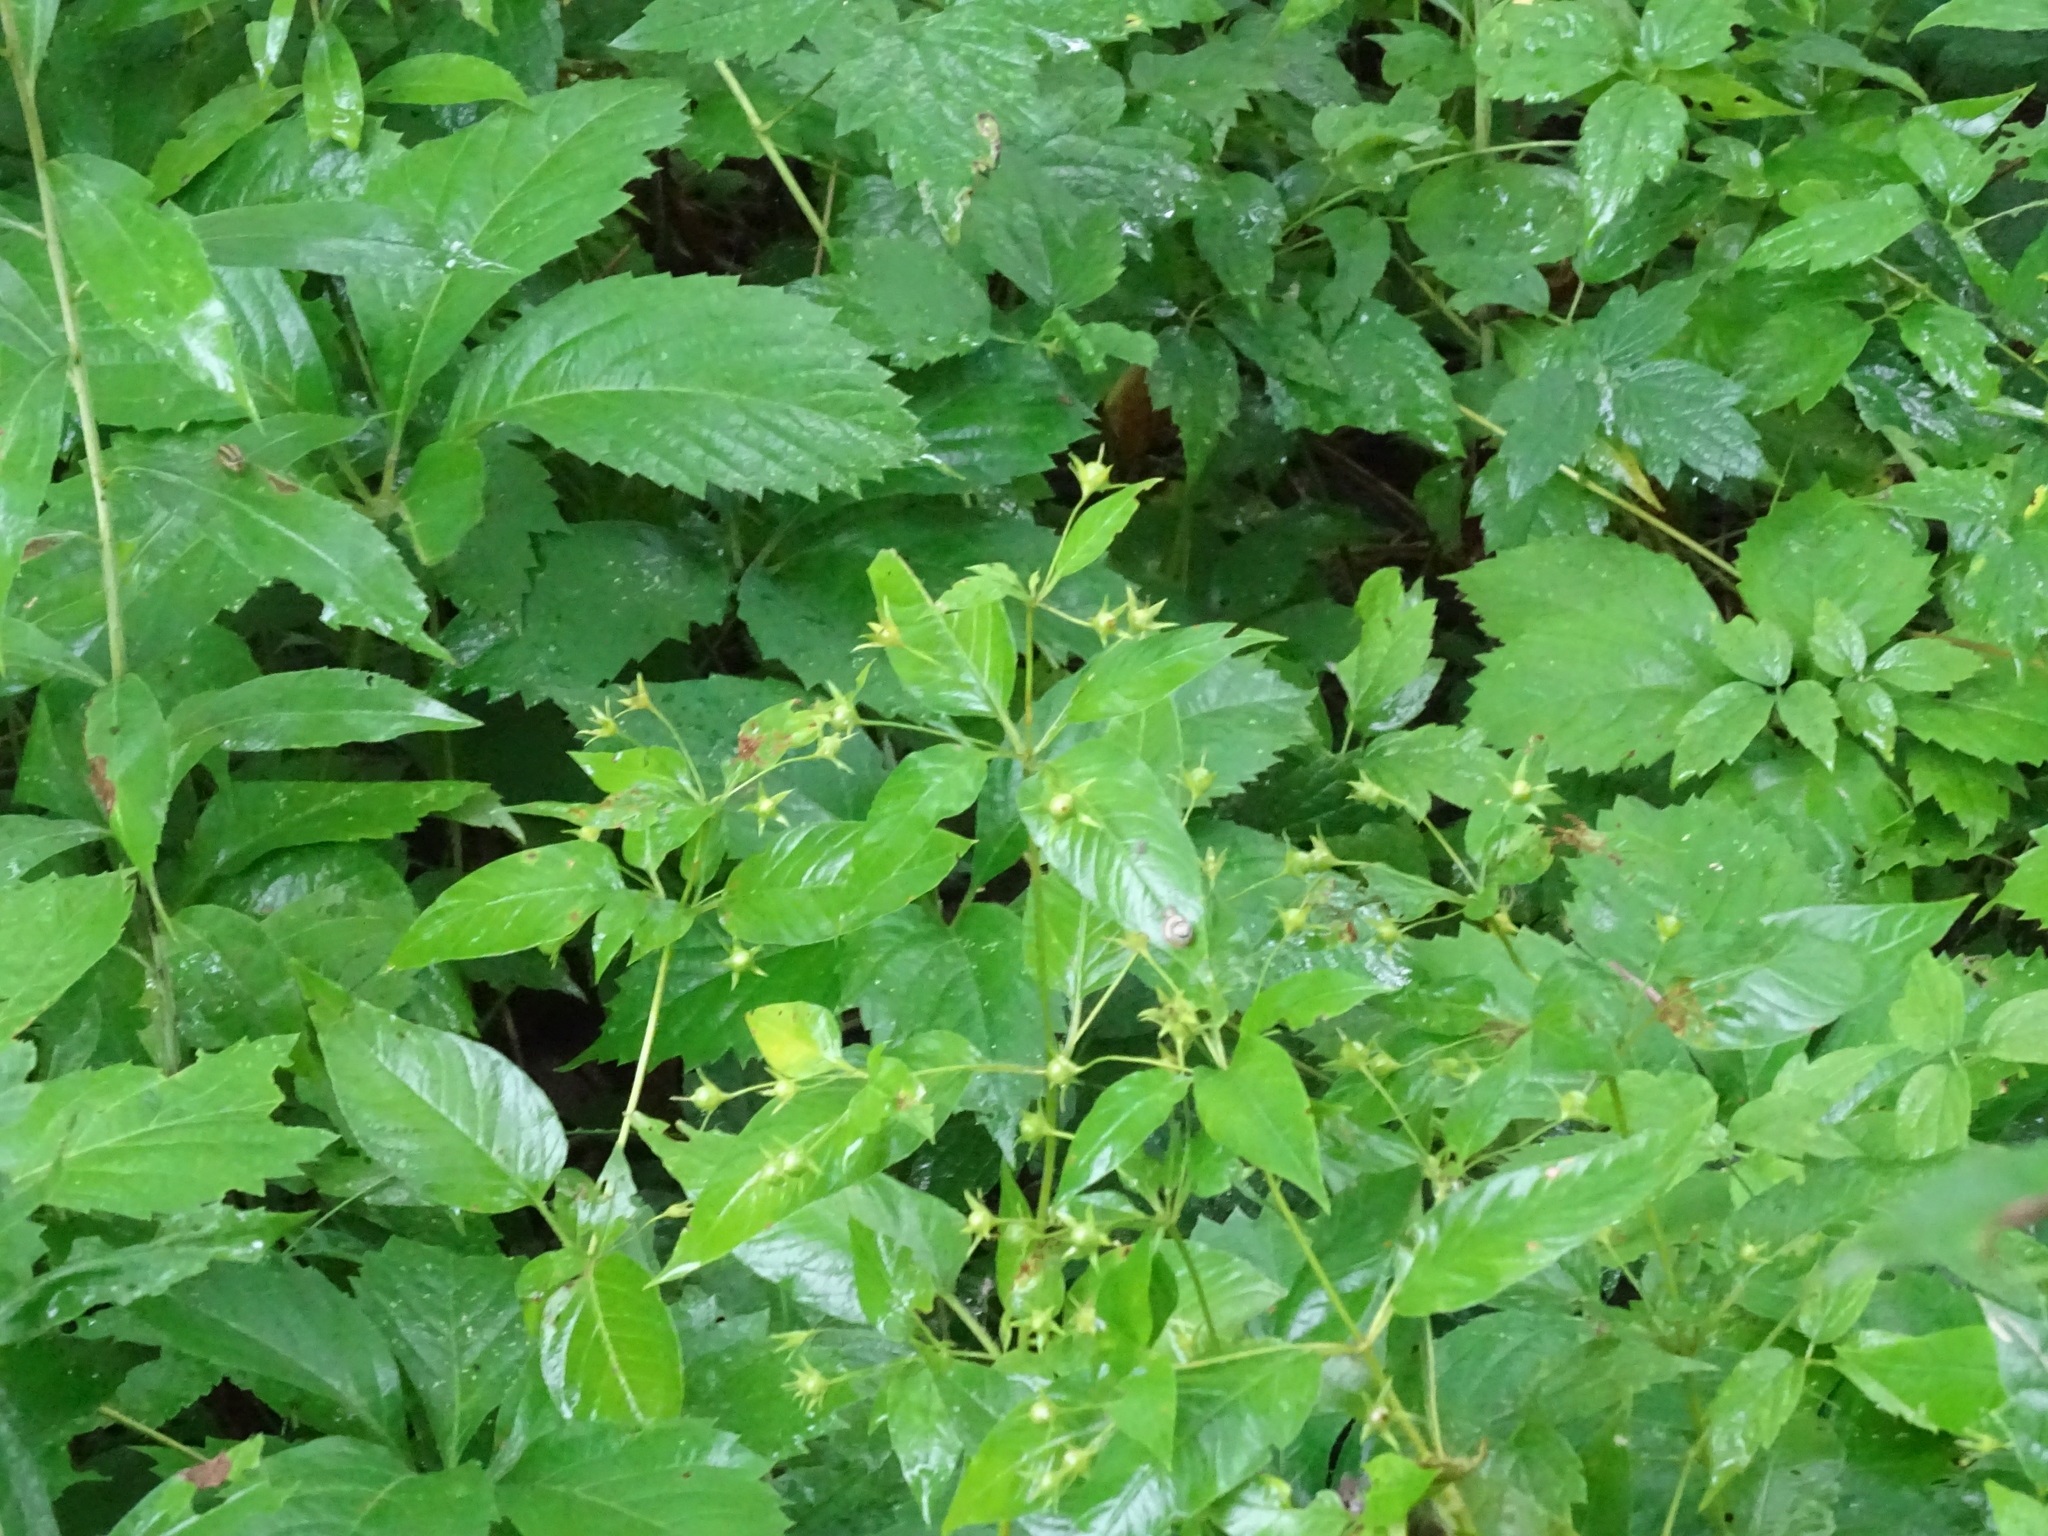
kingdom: Plantae
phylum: Tracheophyta
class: Magnoliopsida
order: Ericales
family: Primulaceae
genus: Lysimachia
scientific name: Lysimachia ciliata
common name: Fringed loosestrife
